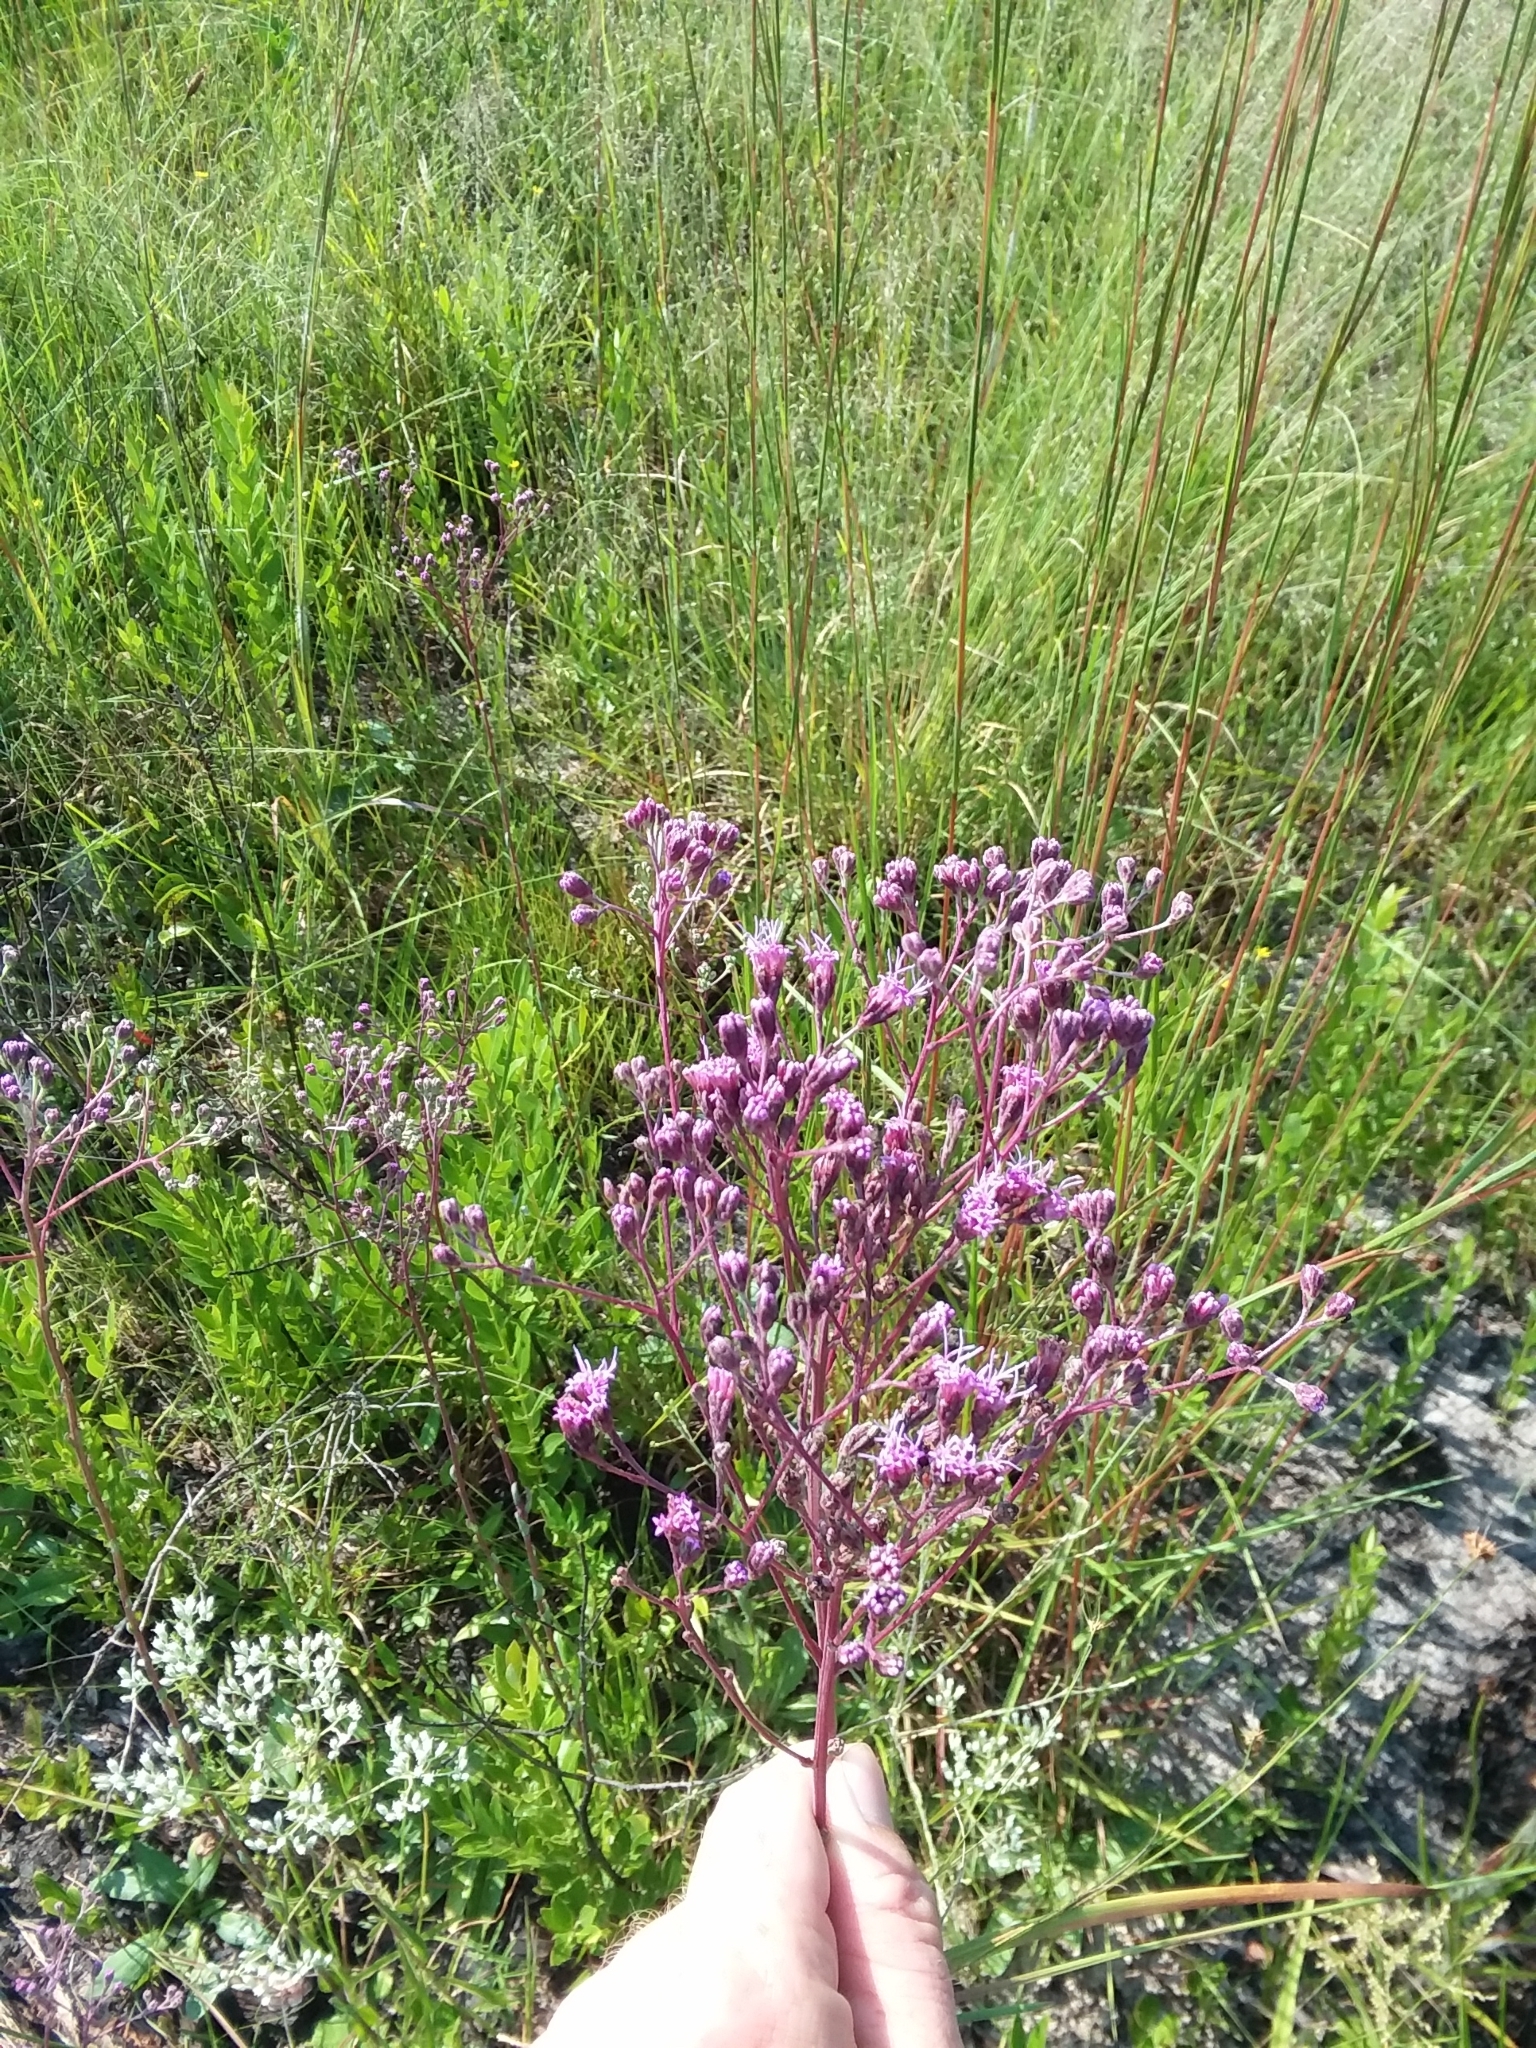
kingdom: Plantae
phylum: Tracheophyta
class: Magnoliopsida
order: Asterales
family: Asteraceae
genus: Carphephorus
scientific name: Carphephorus odoratissimus
